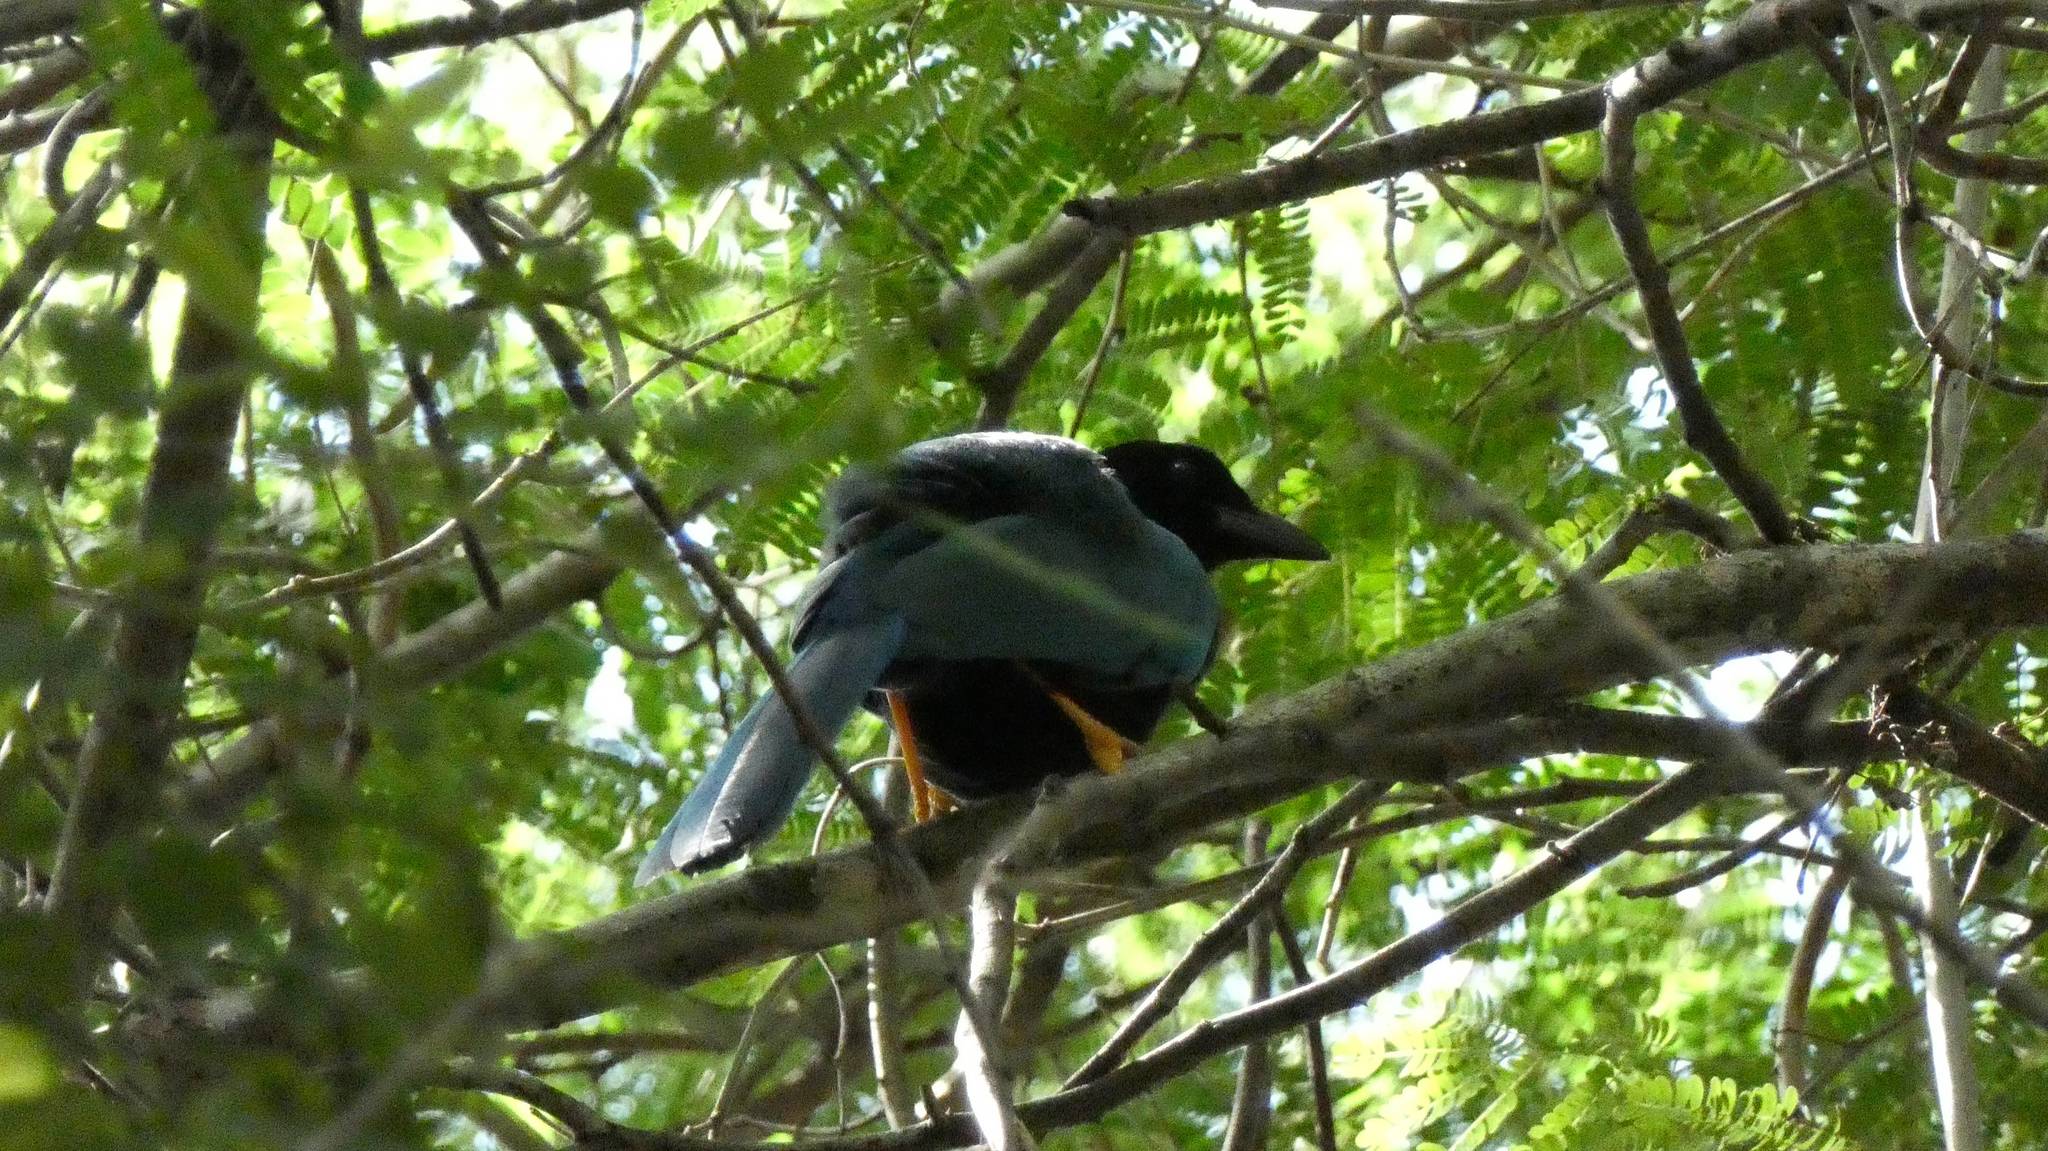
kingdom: Animalia
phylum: Chordata
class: Aves
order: Passeriformes
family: Corvidae
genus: Cyanocorax
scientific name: Cyanocorax yucatanicus
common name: Yucatan jay
